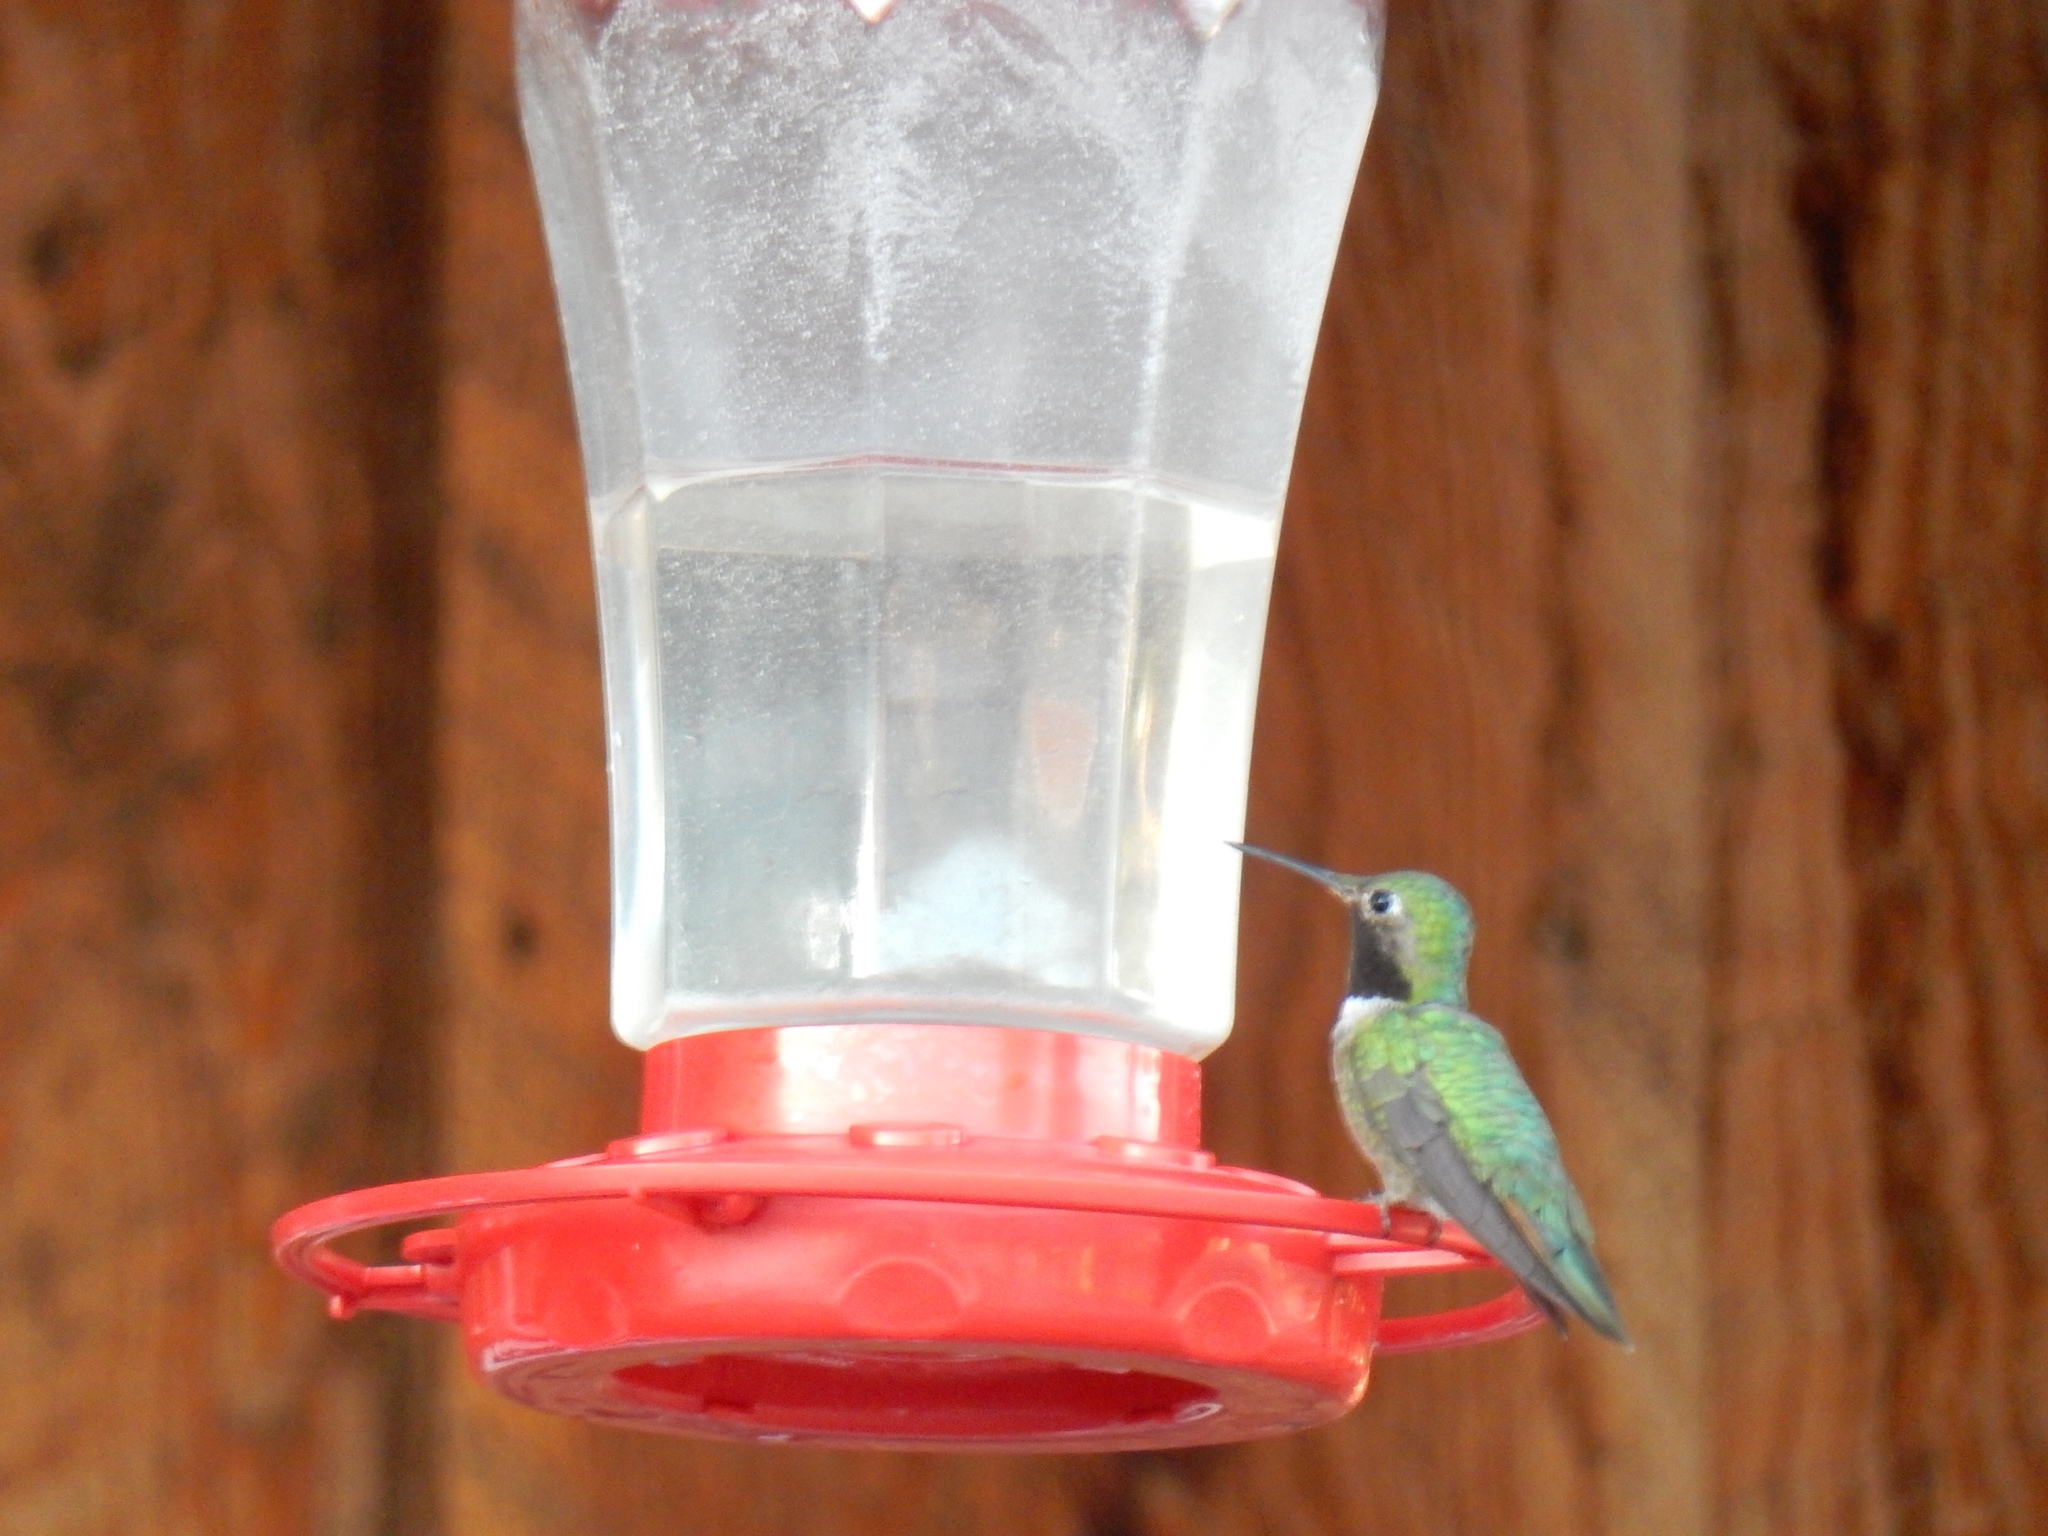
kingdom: Animalia
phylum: Chordata
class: Aves
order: Apodiformes
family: Trochilidae
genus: Selasphorus
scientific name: Selasphorus platycercus
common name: Broad-tailed hummingbird
